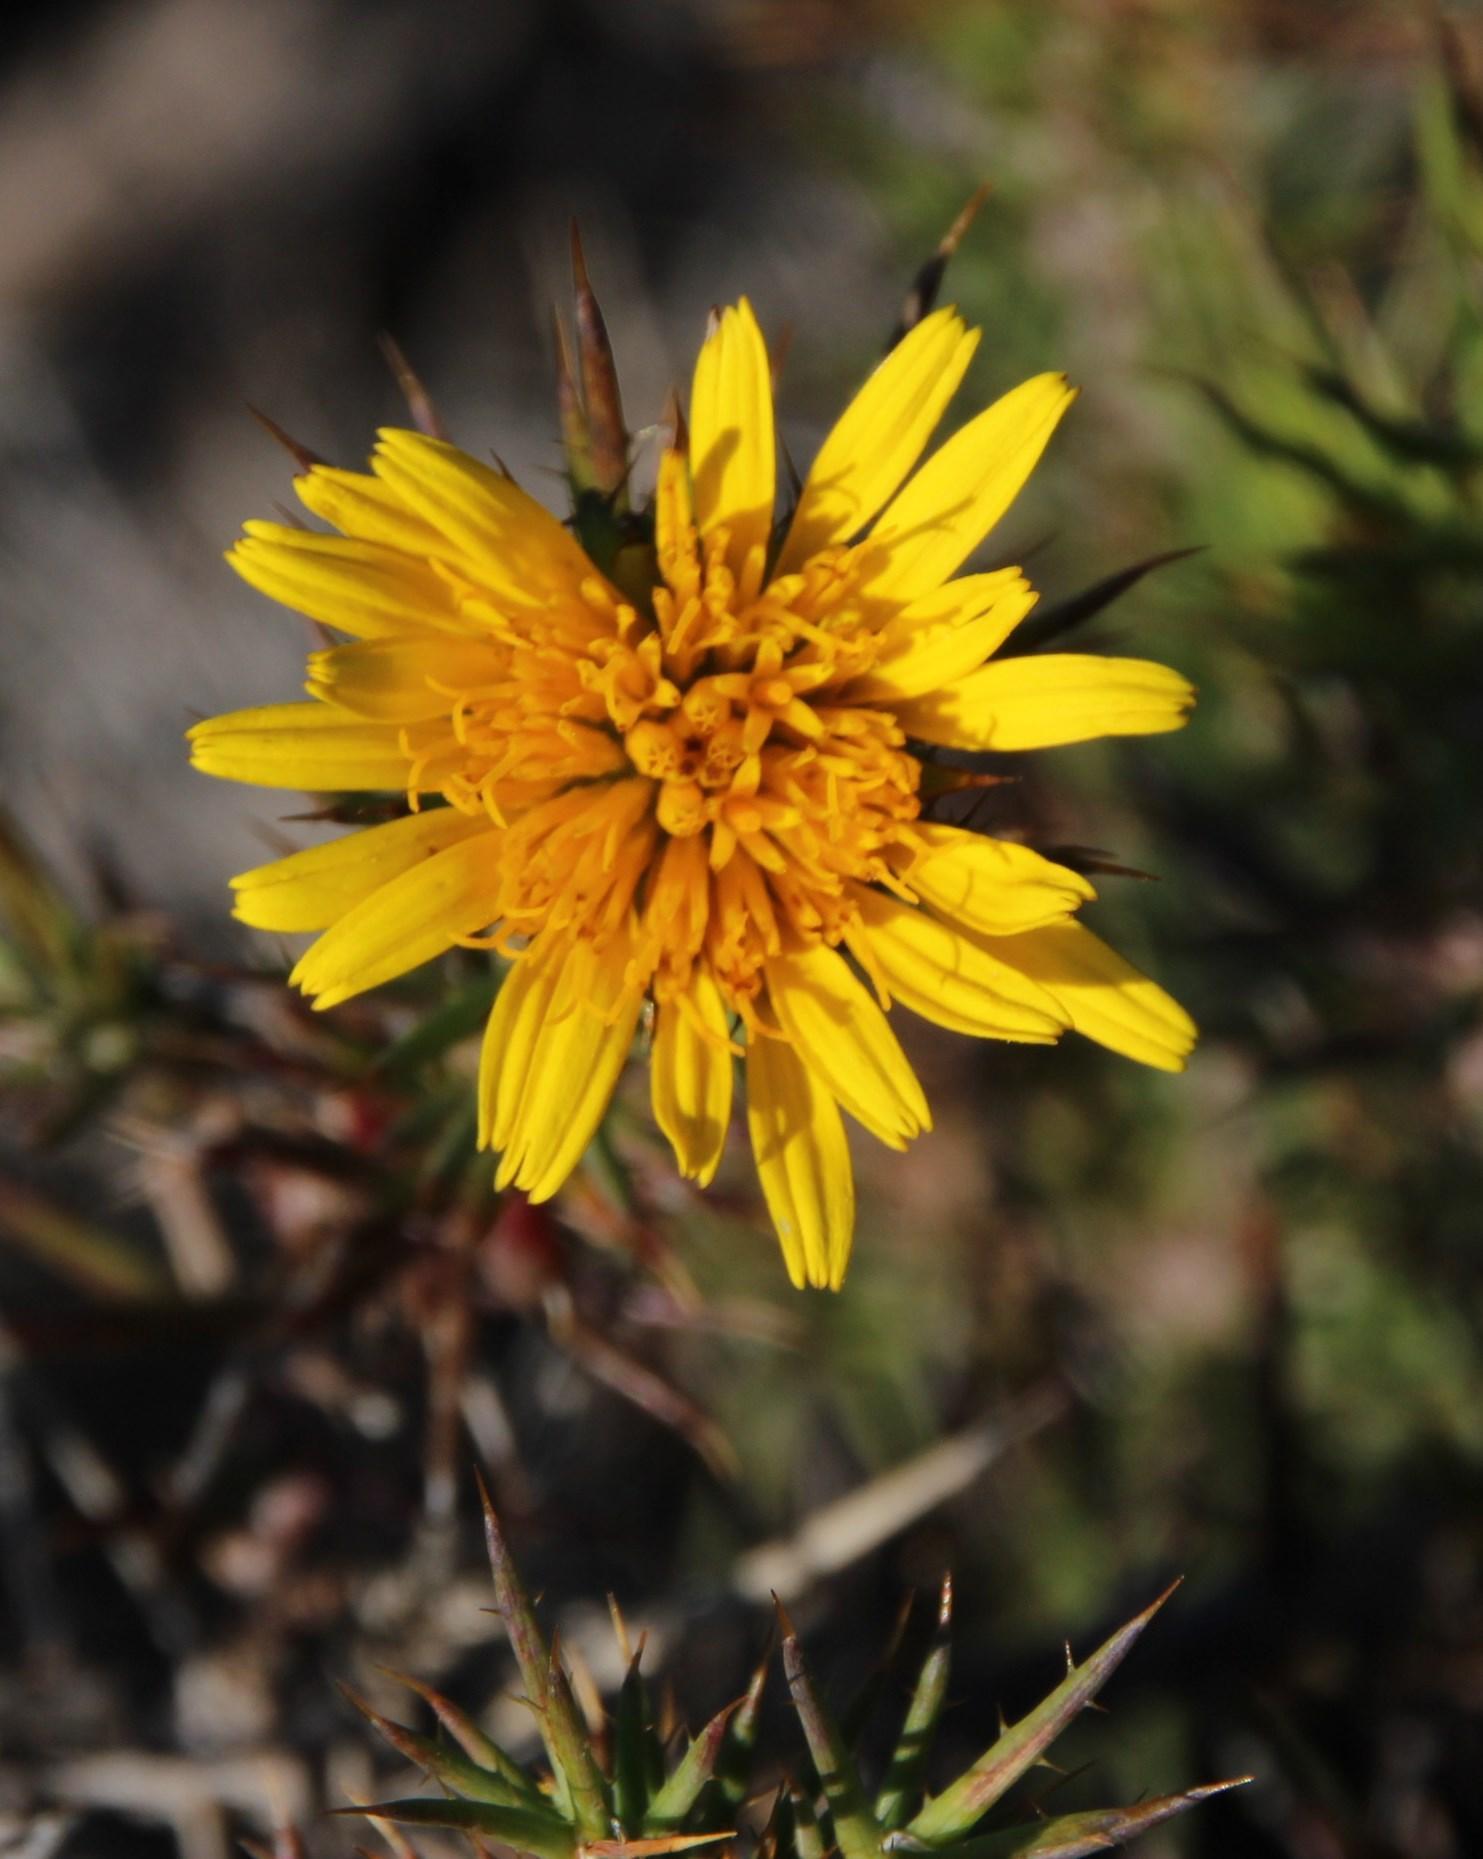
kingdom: Plantae
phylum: Tracheophyta
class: Magnoliopsida
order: Asterales
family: Asteraceae
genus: Cullumia
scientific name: Cullumia patula
